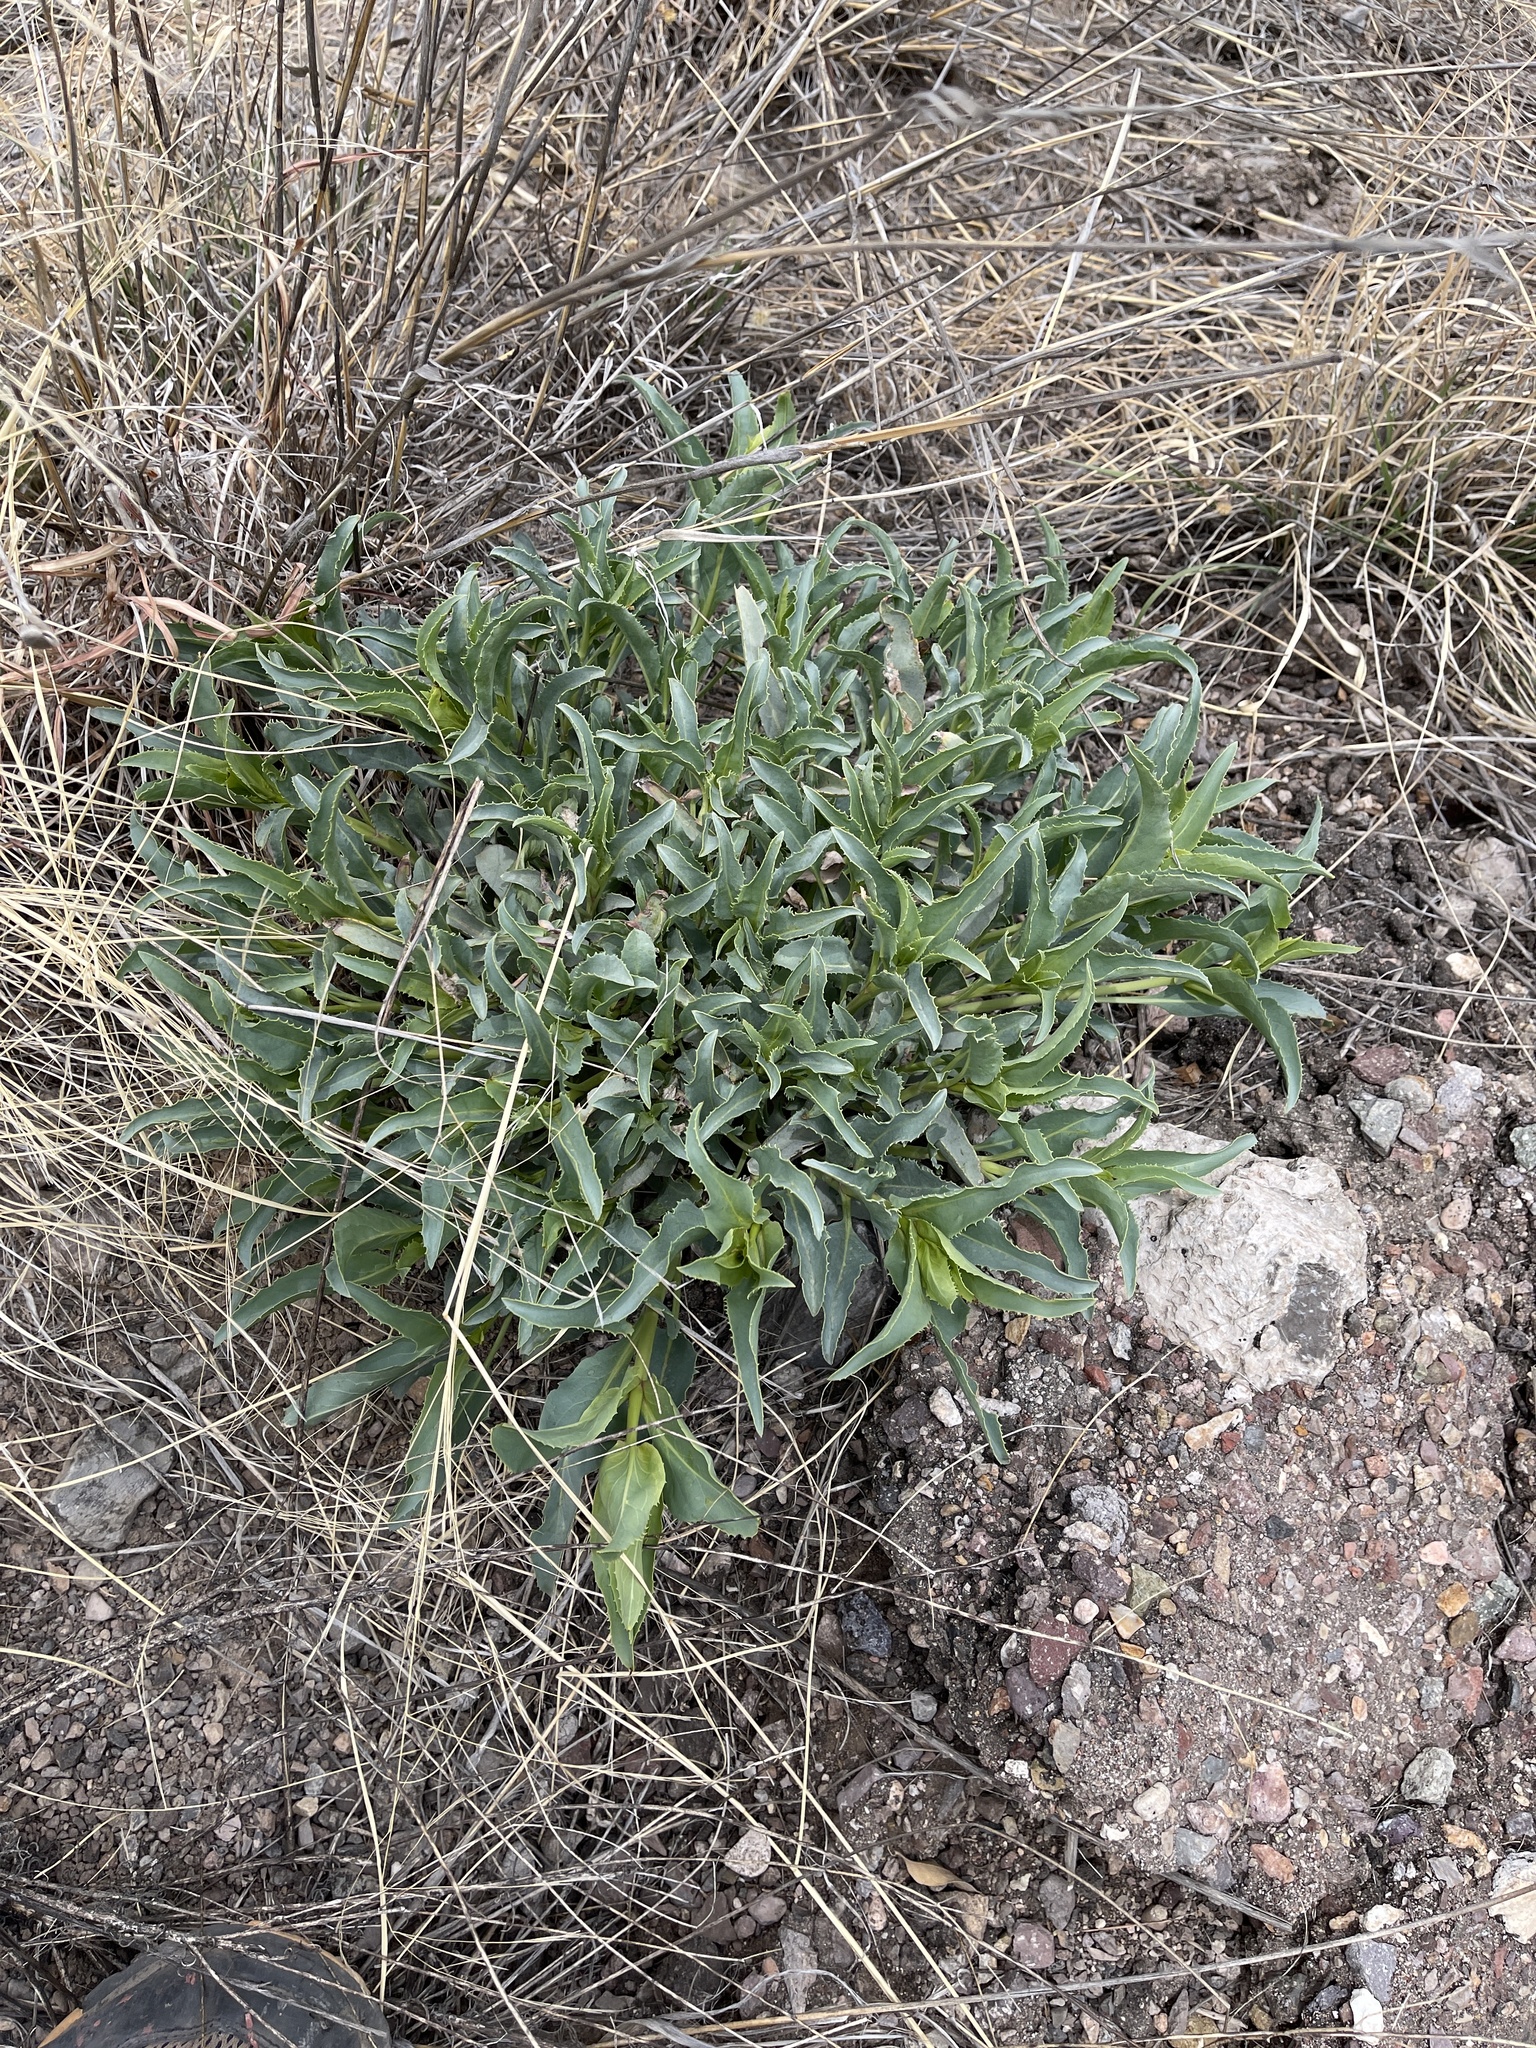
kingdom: Plantae
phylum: Tracheophyta
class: Magnoliopsida
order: Caryophyllales
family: Amaranthaceae
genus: Bassia
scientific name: Bassia scoparia
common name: Belvedere
